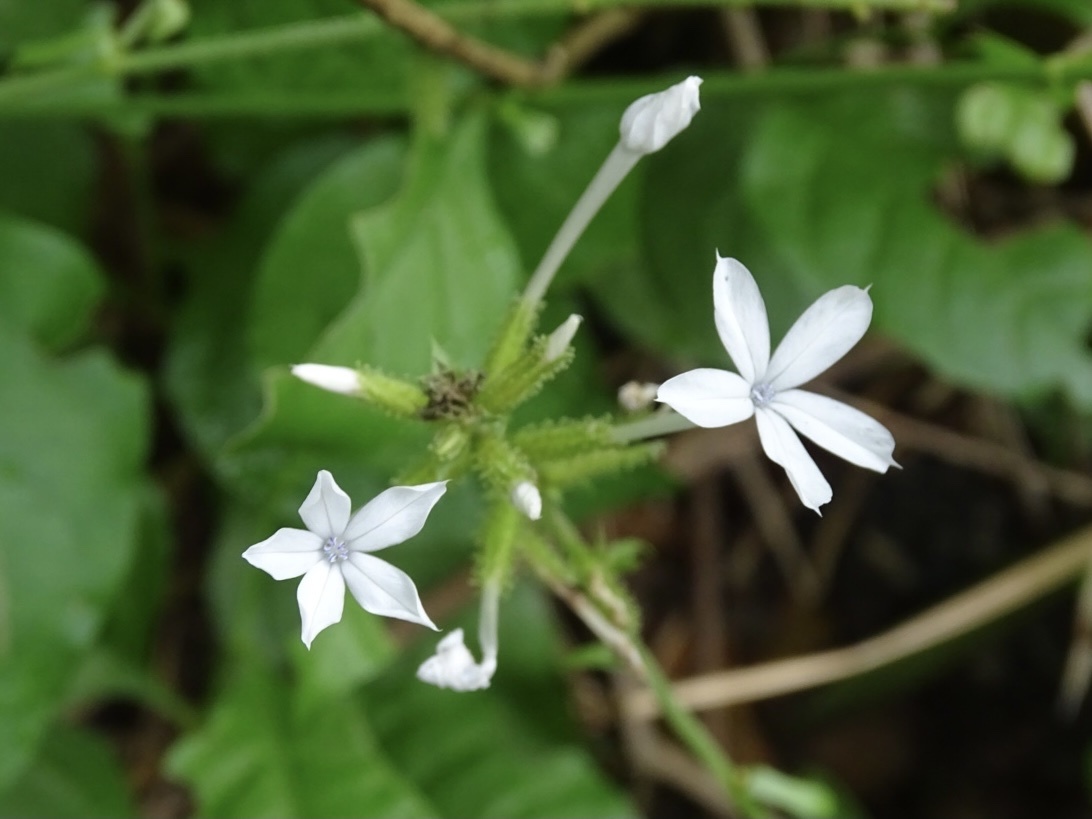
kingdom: Plantae
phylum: Tracheophyta
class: Magnoliopsida
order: Caryophyllales
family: Plumbaginaceae
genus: Plumbago
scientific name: Plumbago zeylanica
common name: Doctorbush
